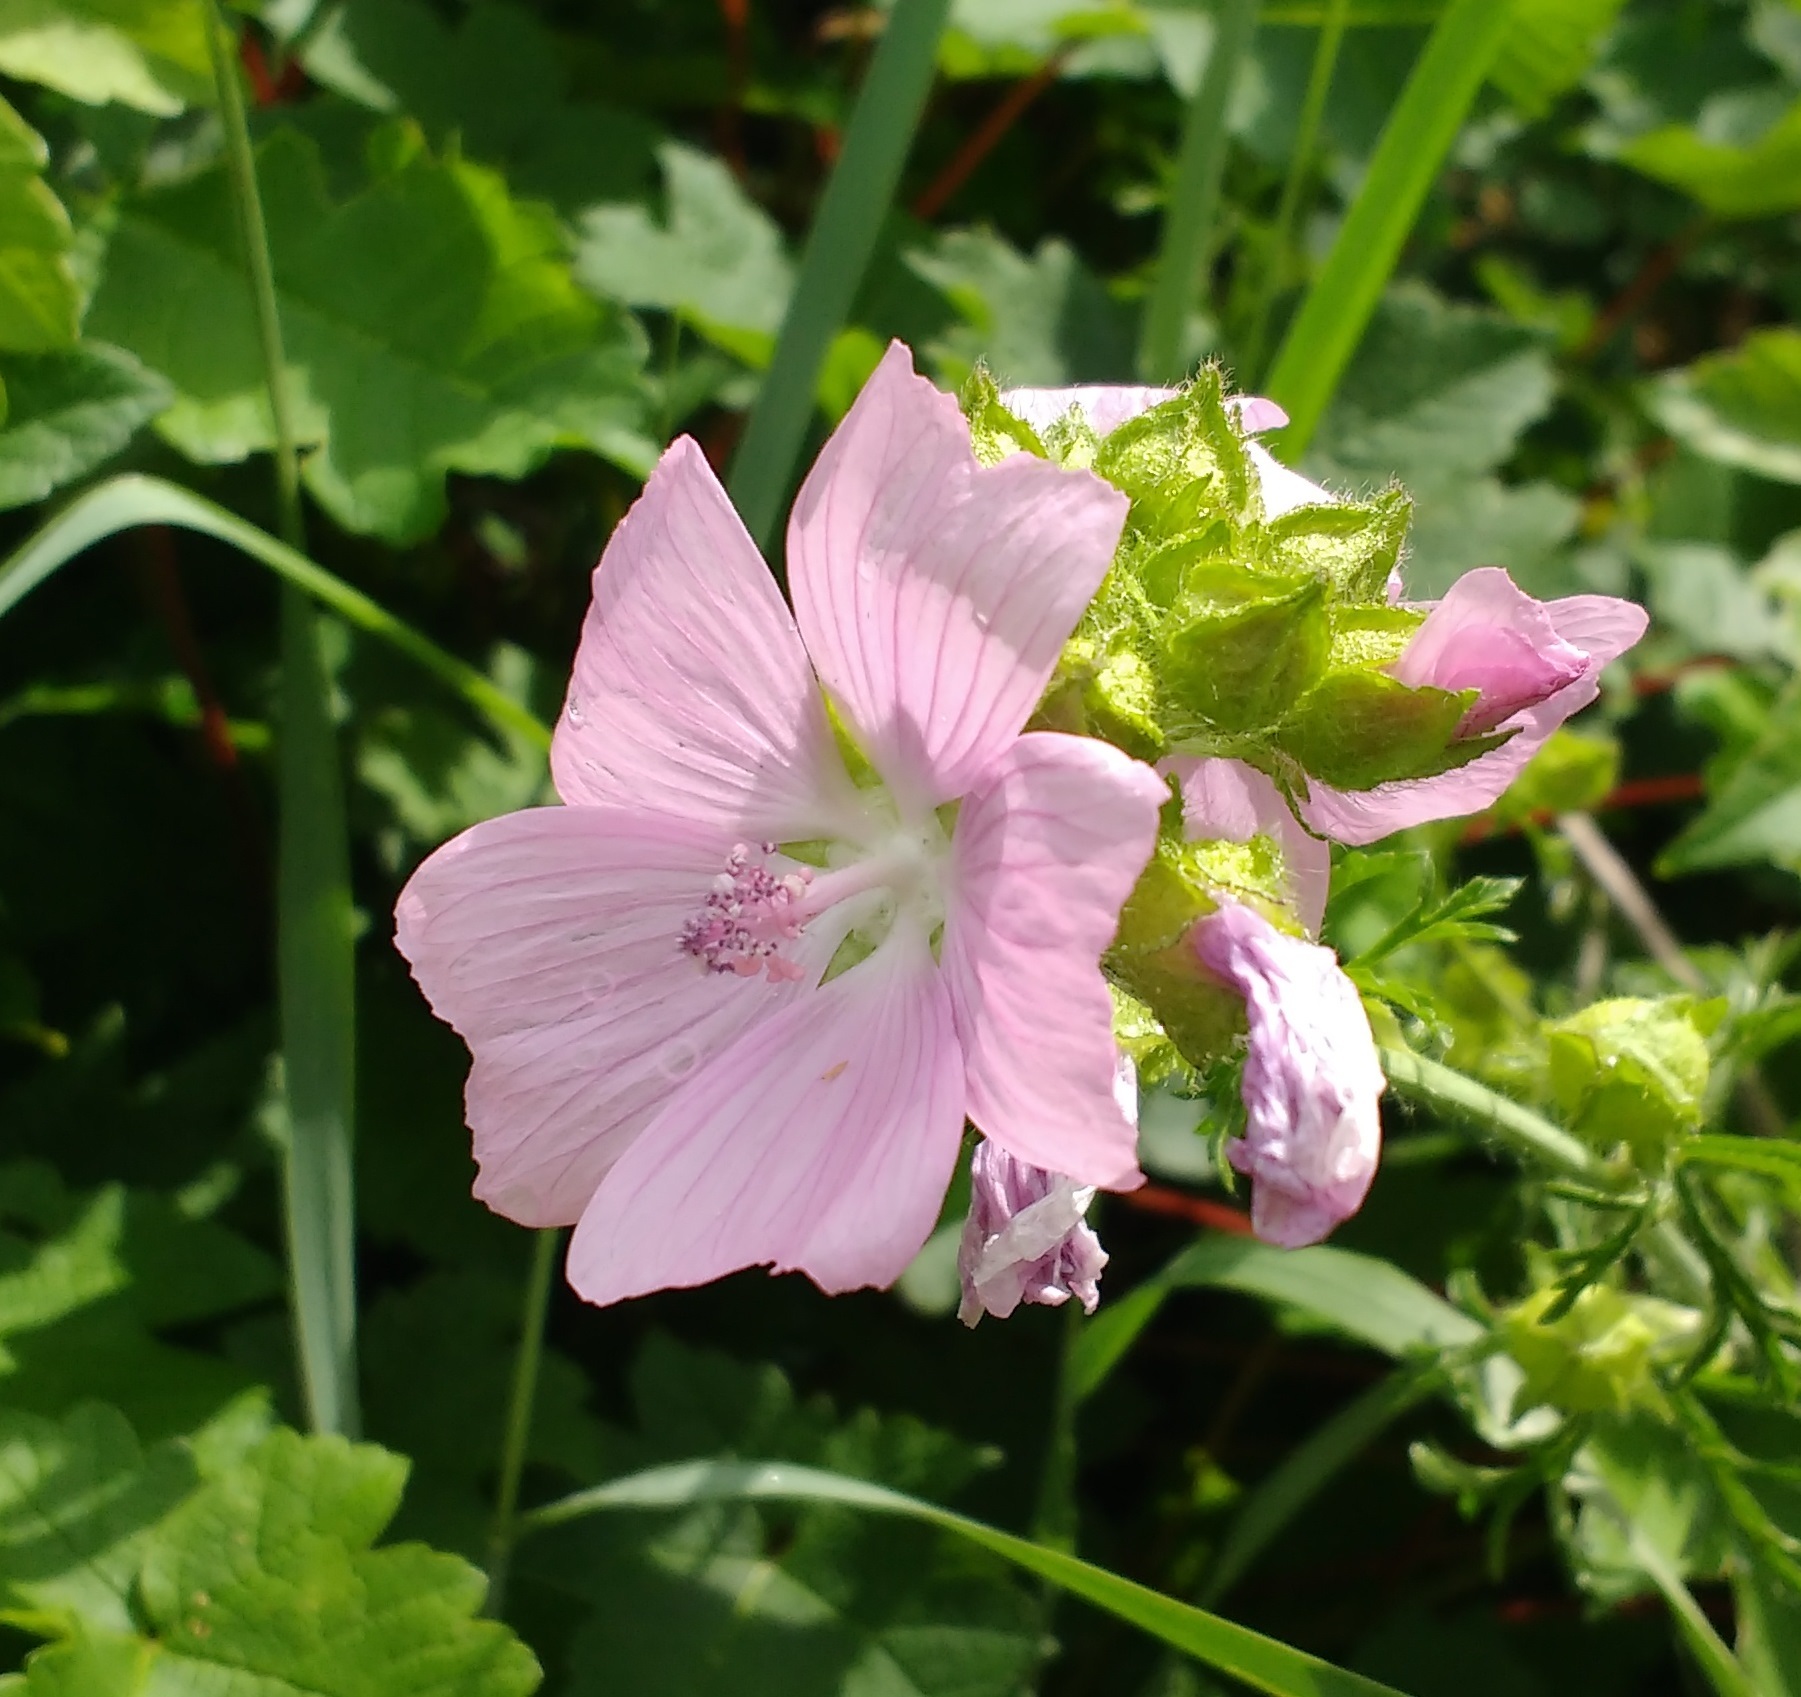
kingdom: Plantae
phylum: Tracheophyta
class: Magnoliopsida
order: Malvales
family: Malvaceae
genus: Malva
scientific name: Malva moschata
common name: Musk mallow
